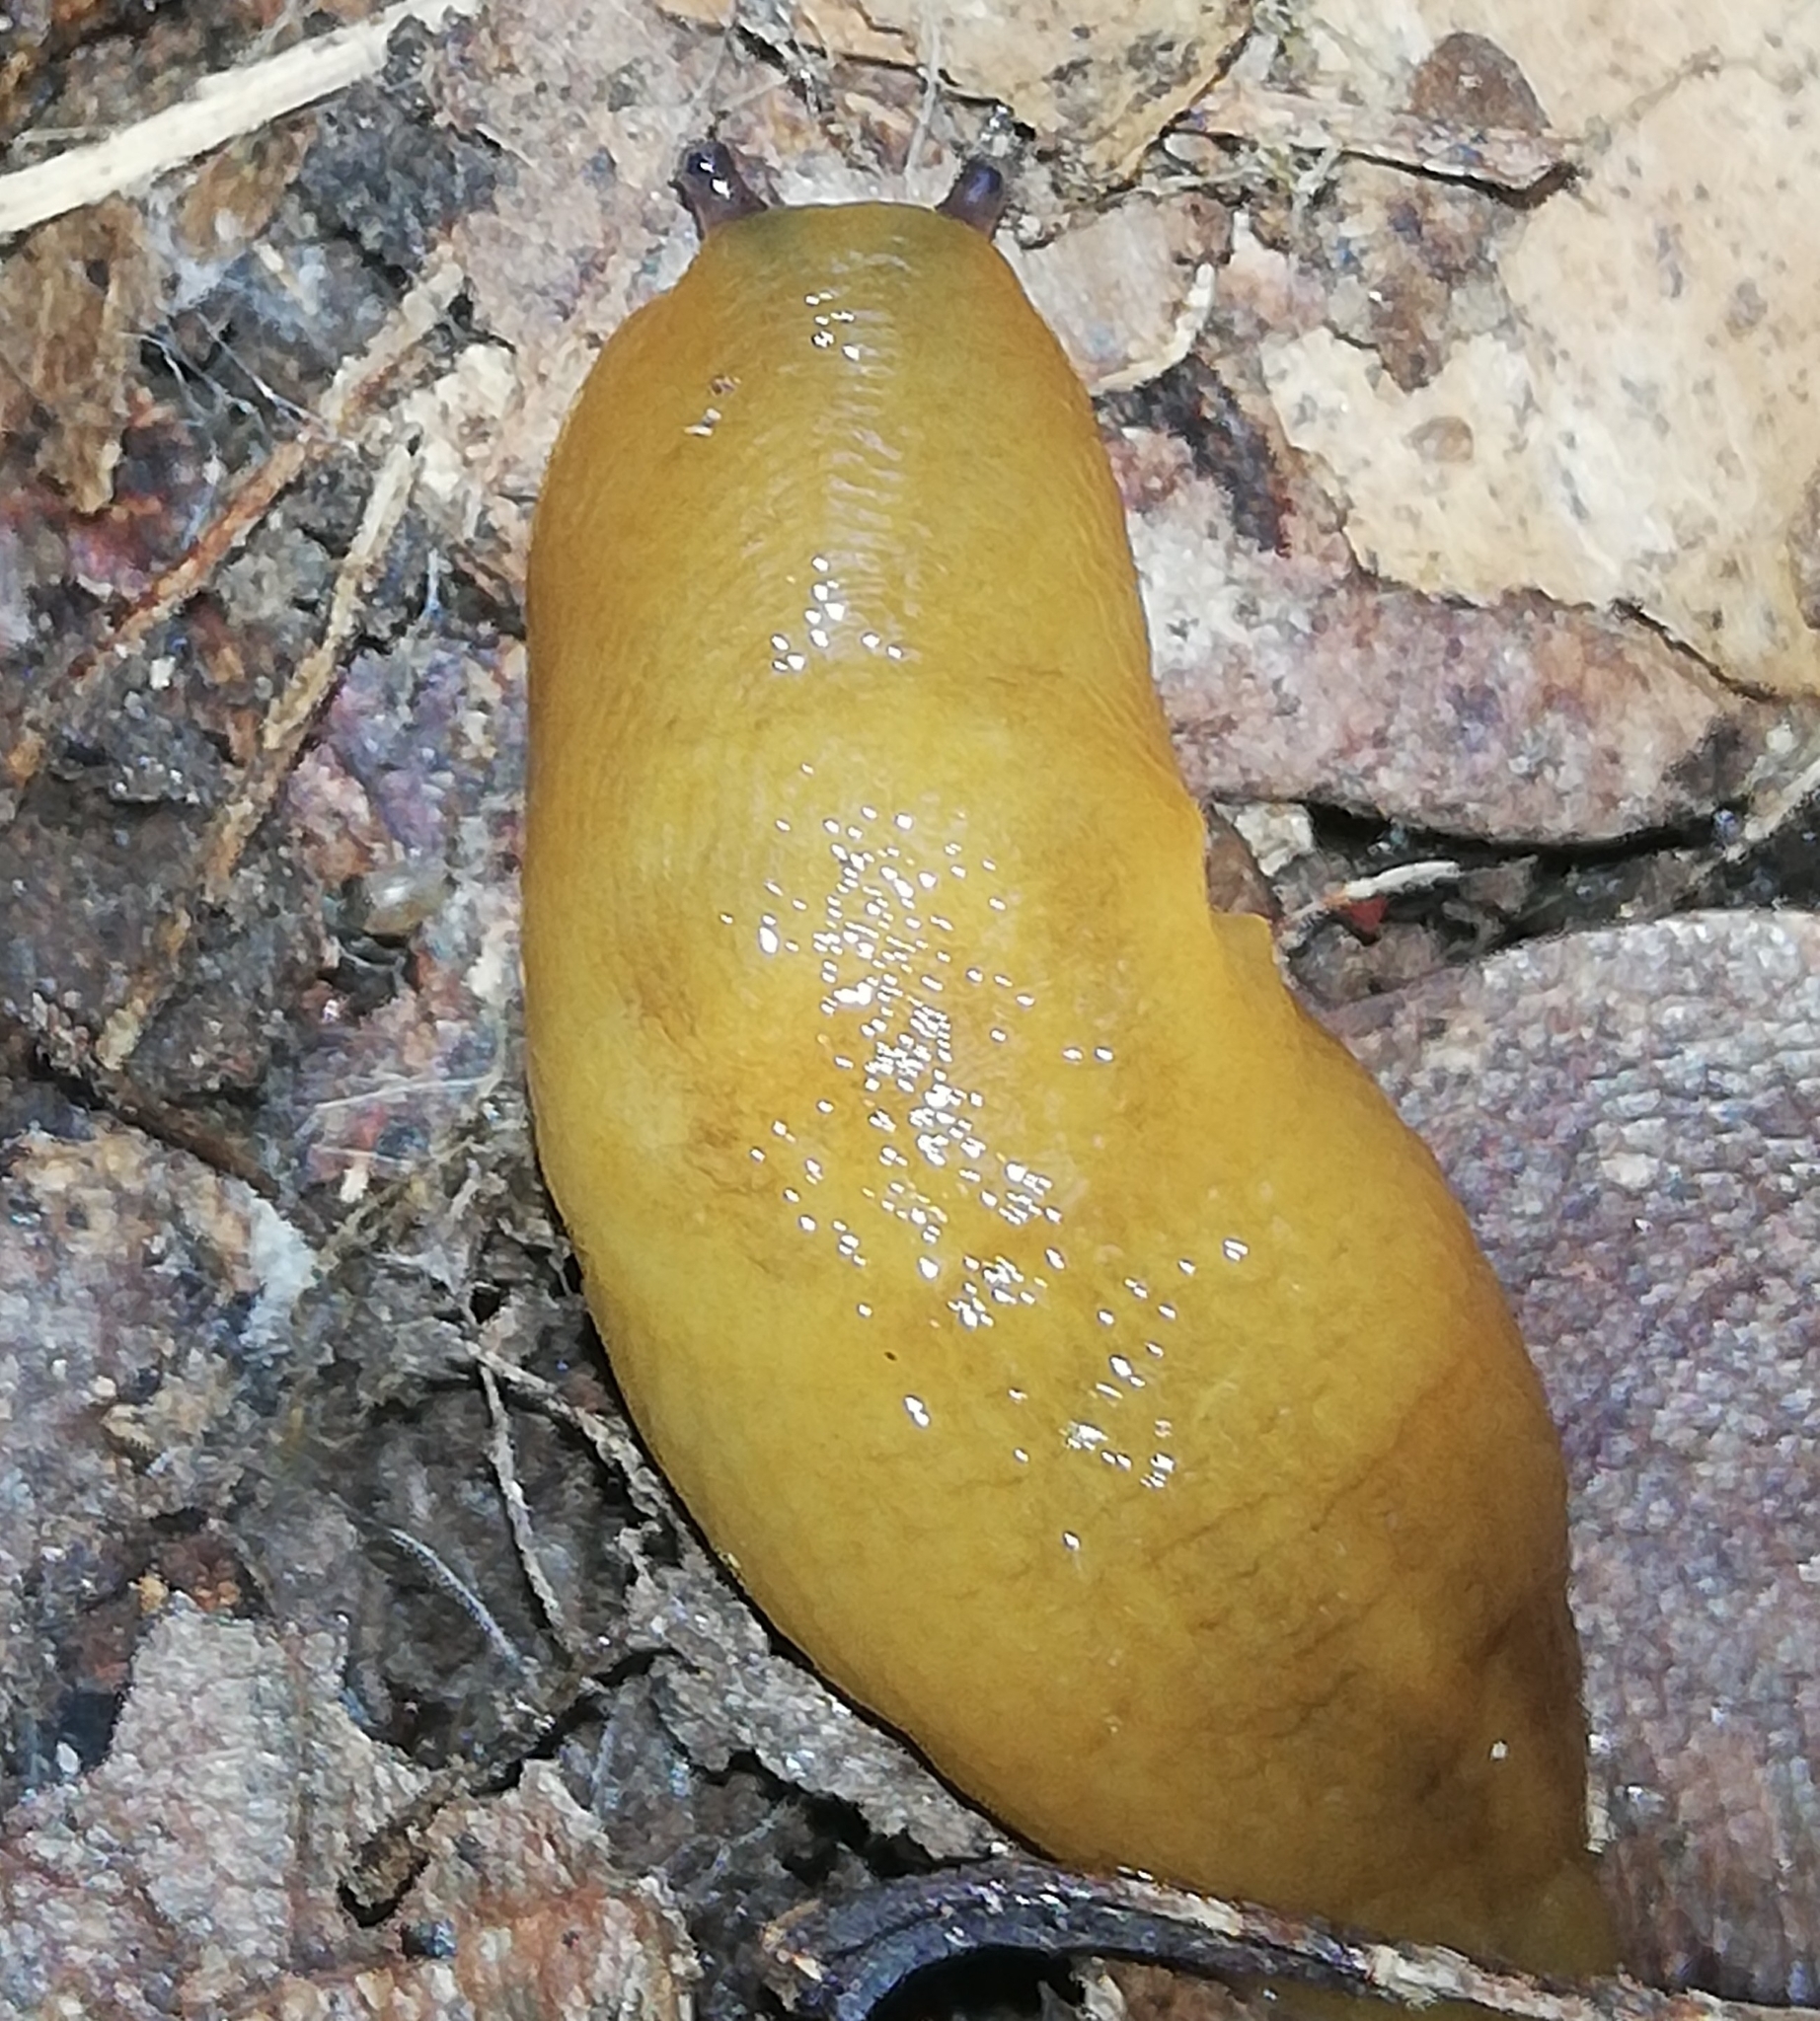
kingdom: Animalia
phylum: Mollusca
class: Gastropoda
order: Stylommatophora
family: Limacidae
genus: Malacolimax
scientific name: Malacolimax tenellus
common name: Lemon slug
